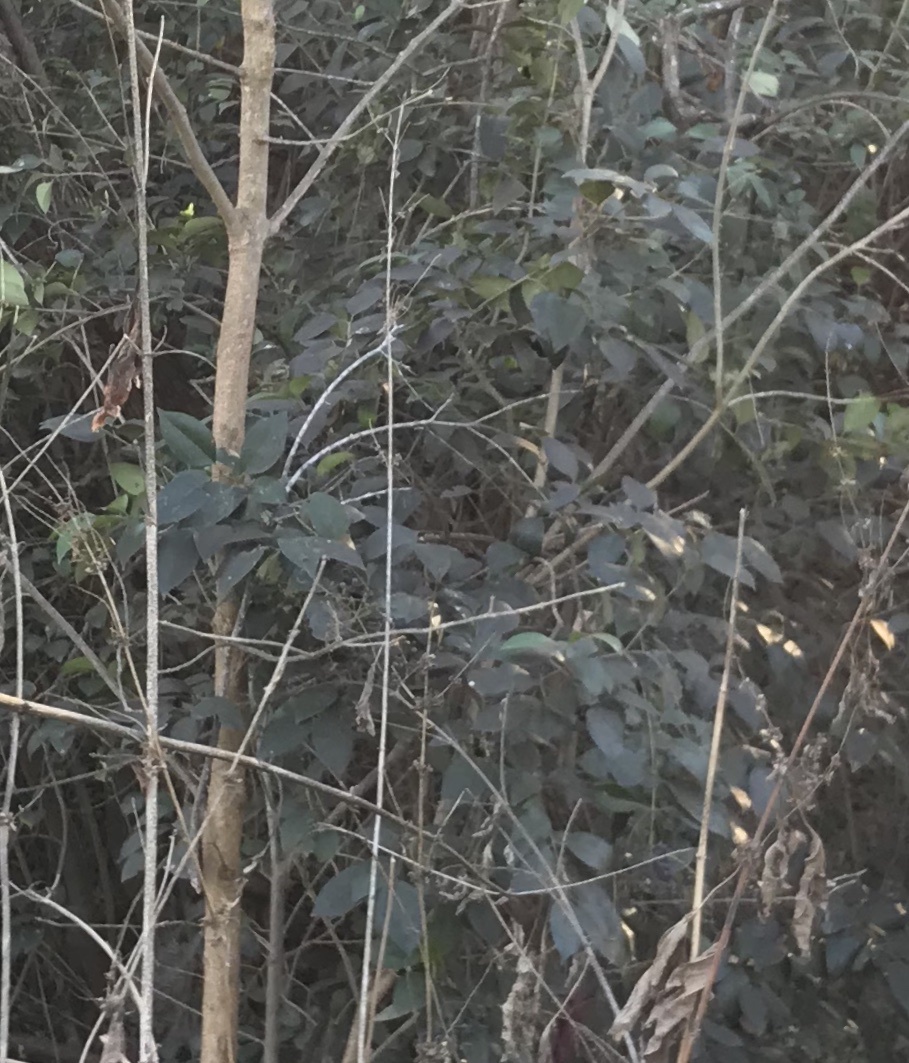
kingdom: Plantae
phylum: Tracheophyta
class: Magnoliopsida
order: Lamiales
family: Oleaceae
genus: Ligustrum
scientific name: Ligustrum lucidum
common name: Glossy privet
